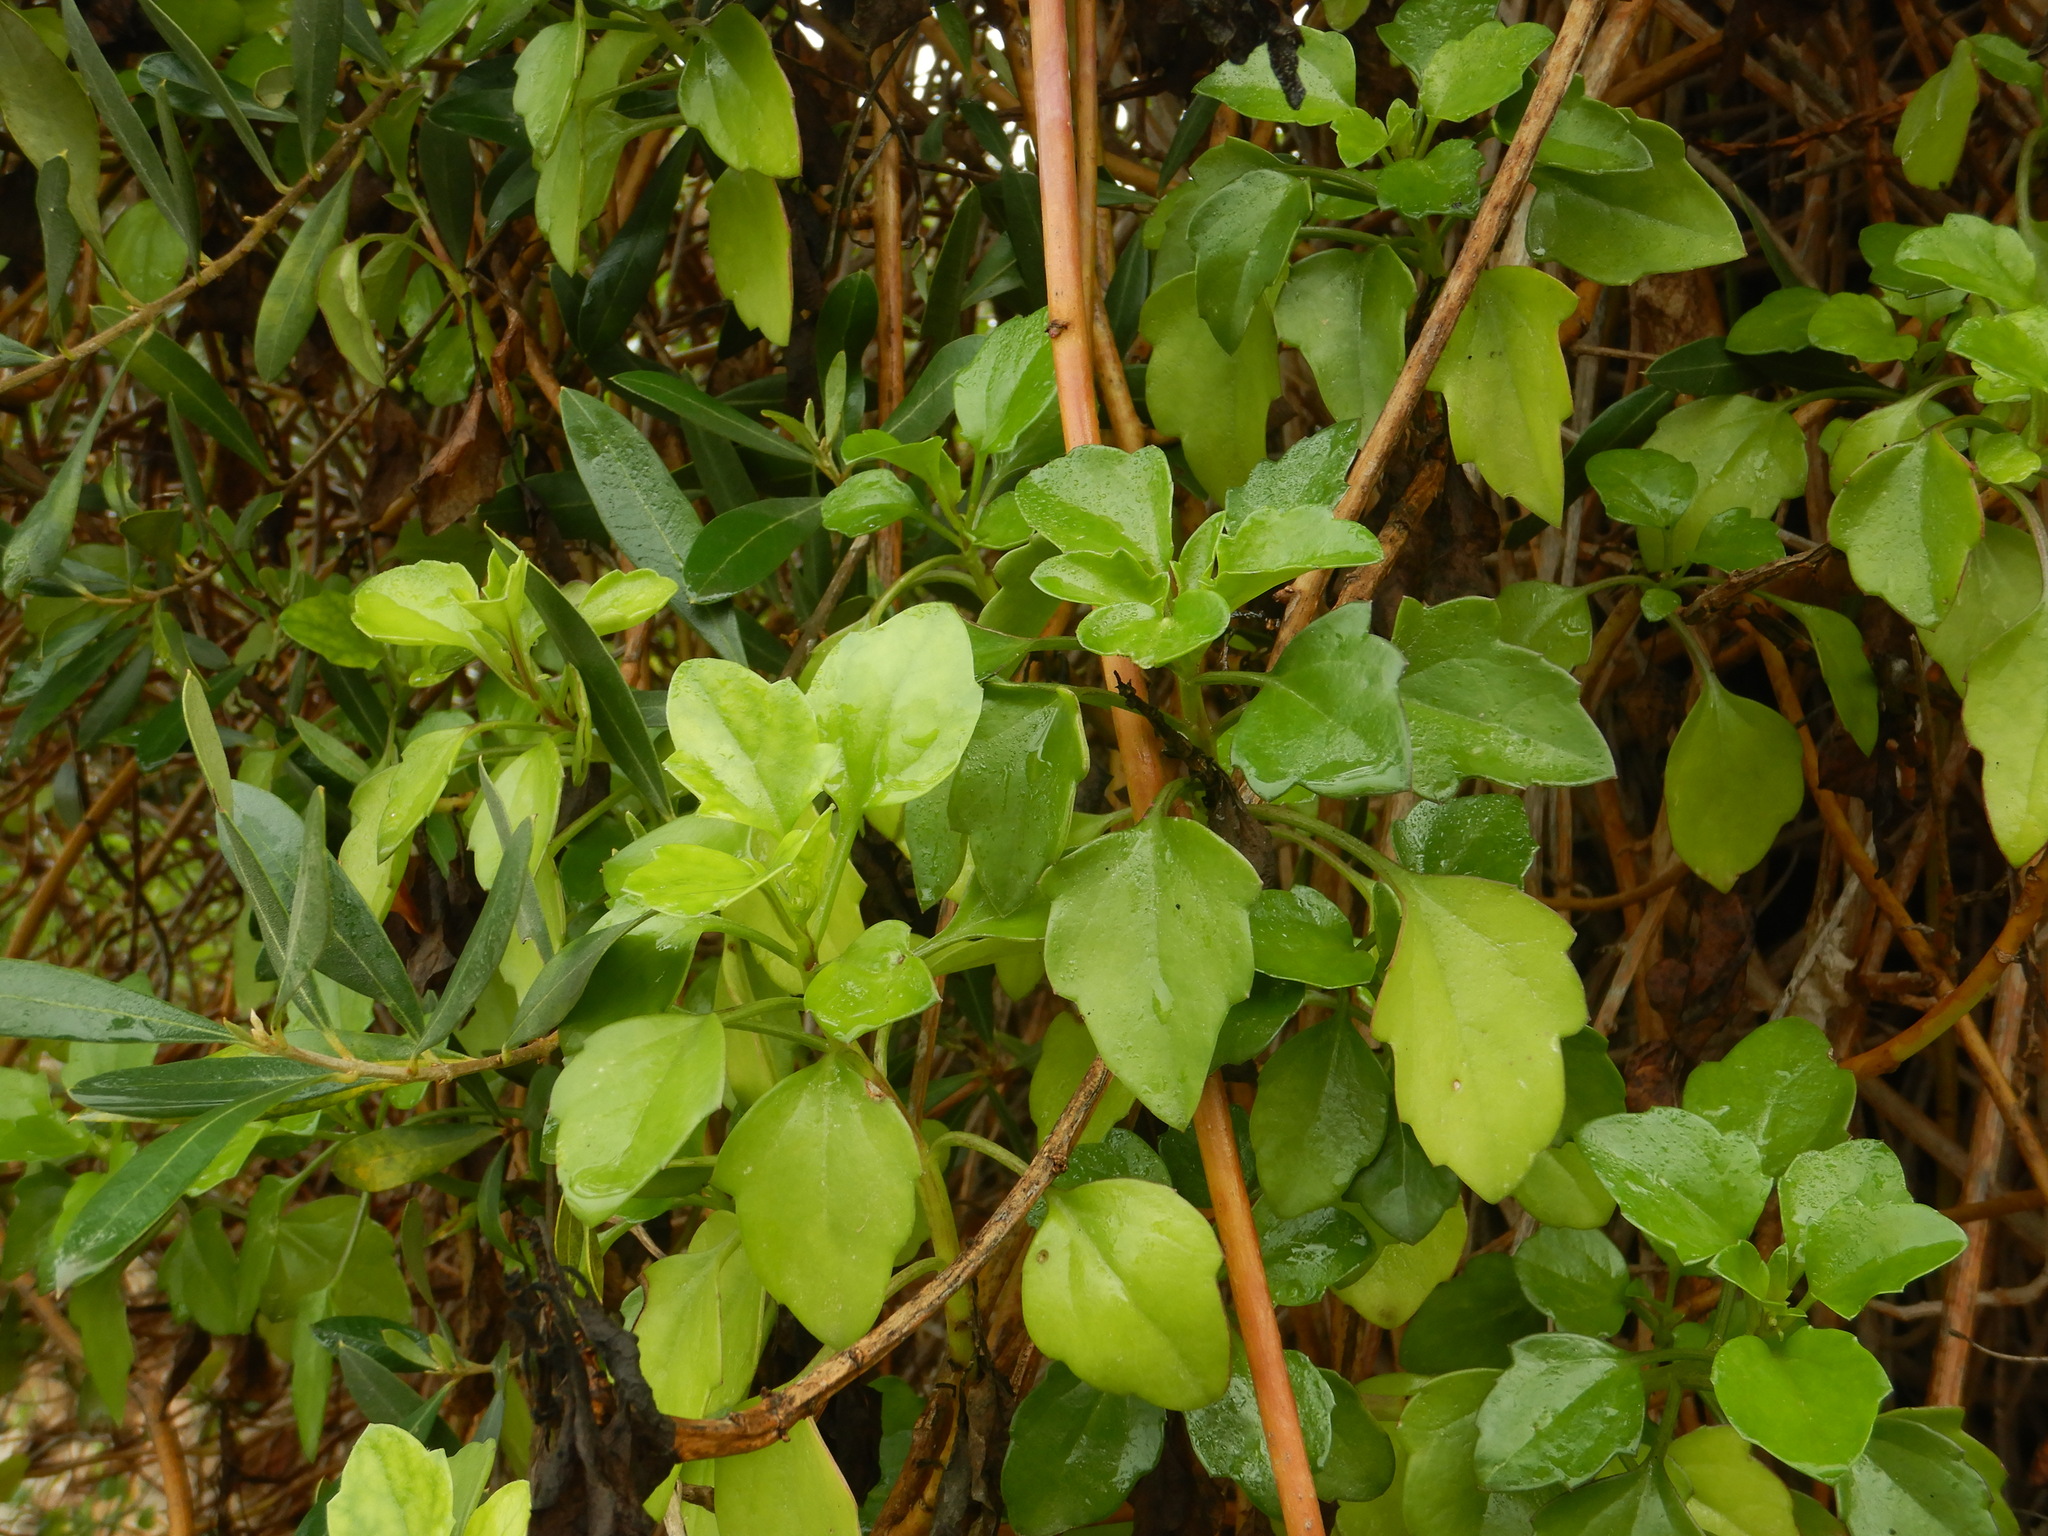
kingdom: Plantae
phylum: Tracheophyta
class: Magnoliopsida
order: Asterales
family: Asteraceae
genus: Senecio
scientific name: Senecio angulatus
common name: Climbing groundsel
